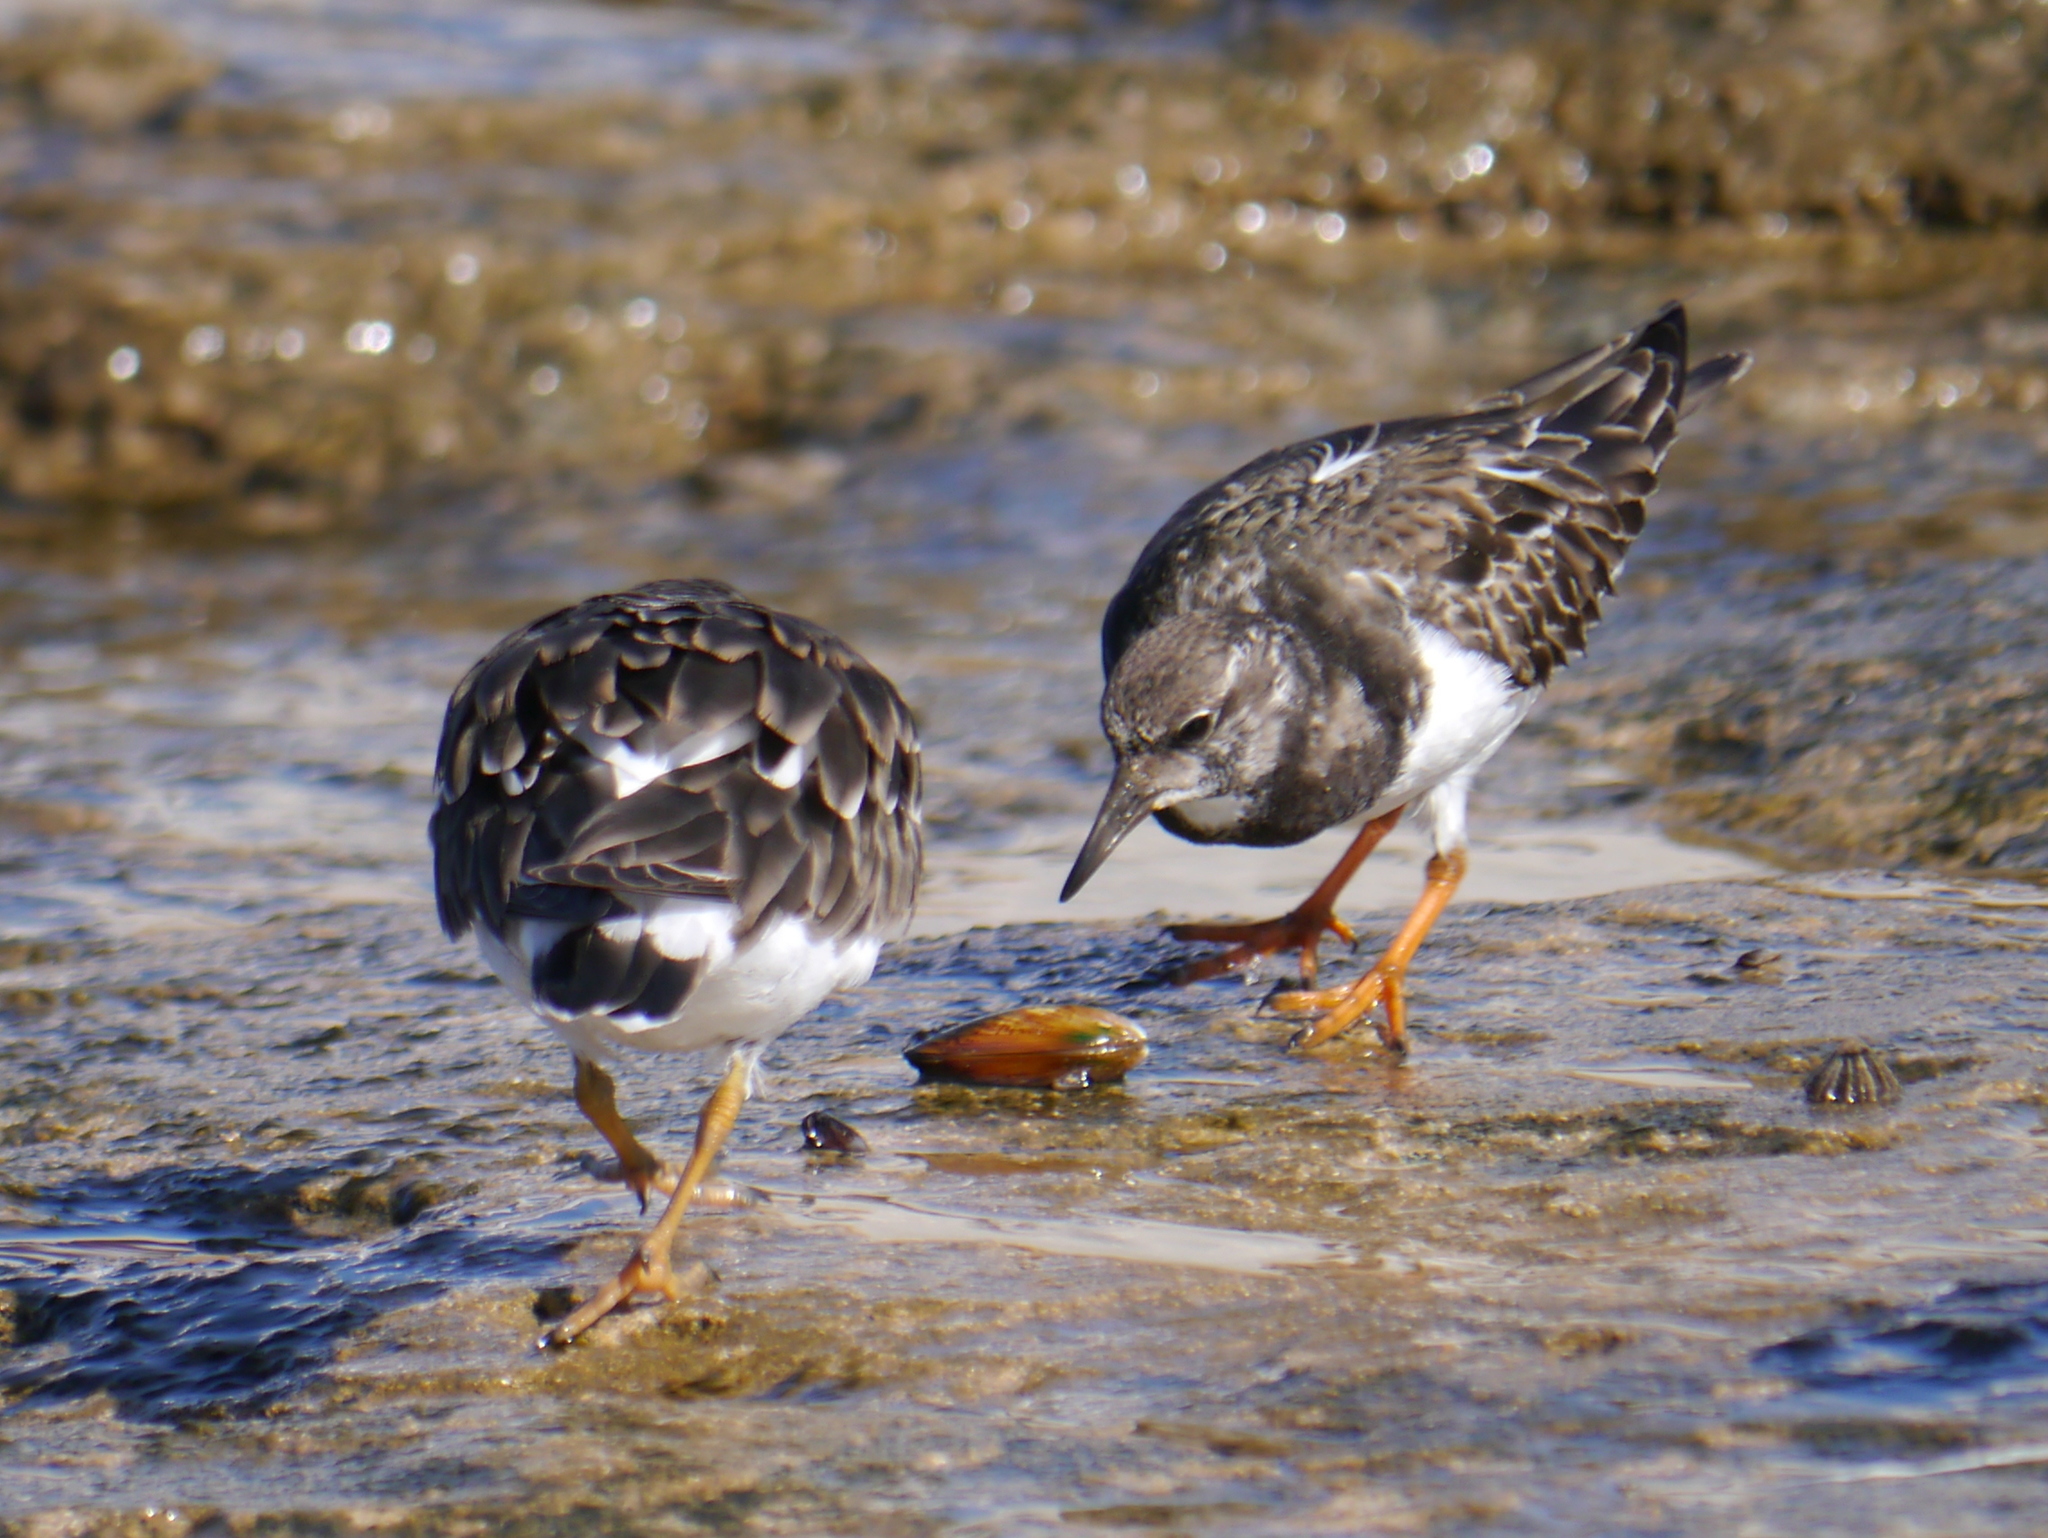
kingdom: Animalia
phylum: Chordata
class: Aves
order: Charadriiformes
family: Scolopacidae
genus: Arenaria
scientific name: Arenaria interpres
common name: Ruddy turnstone
